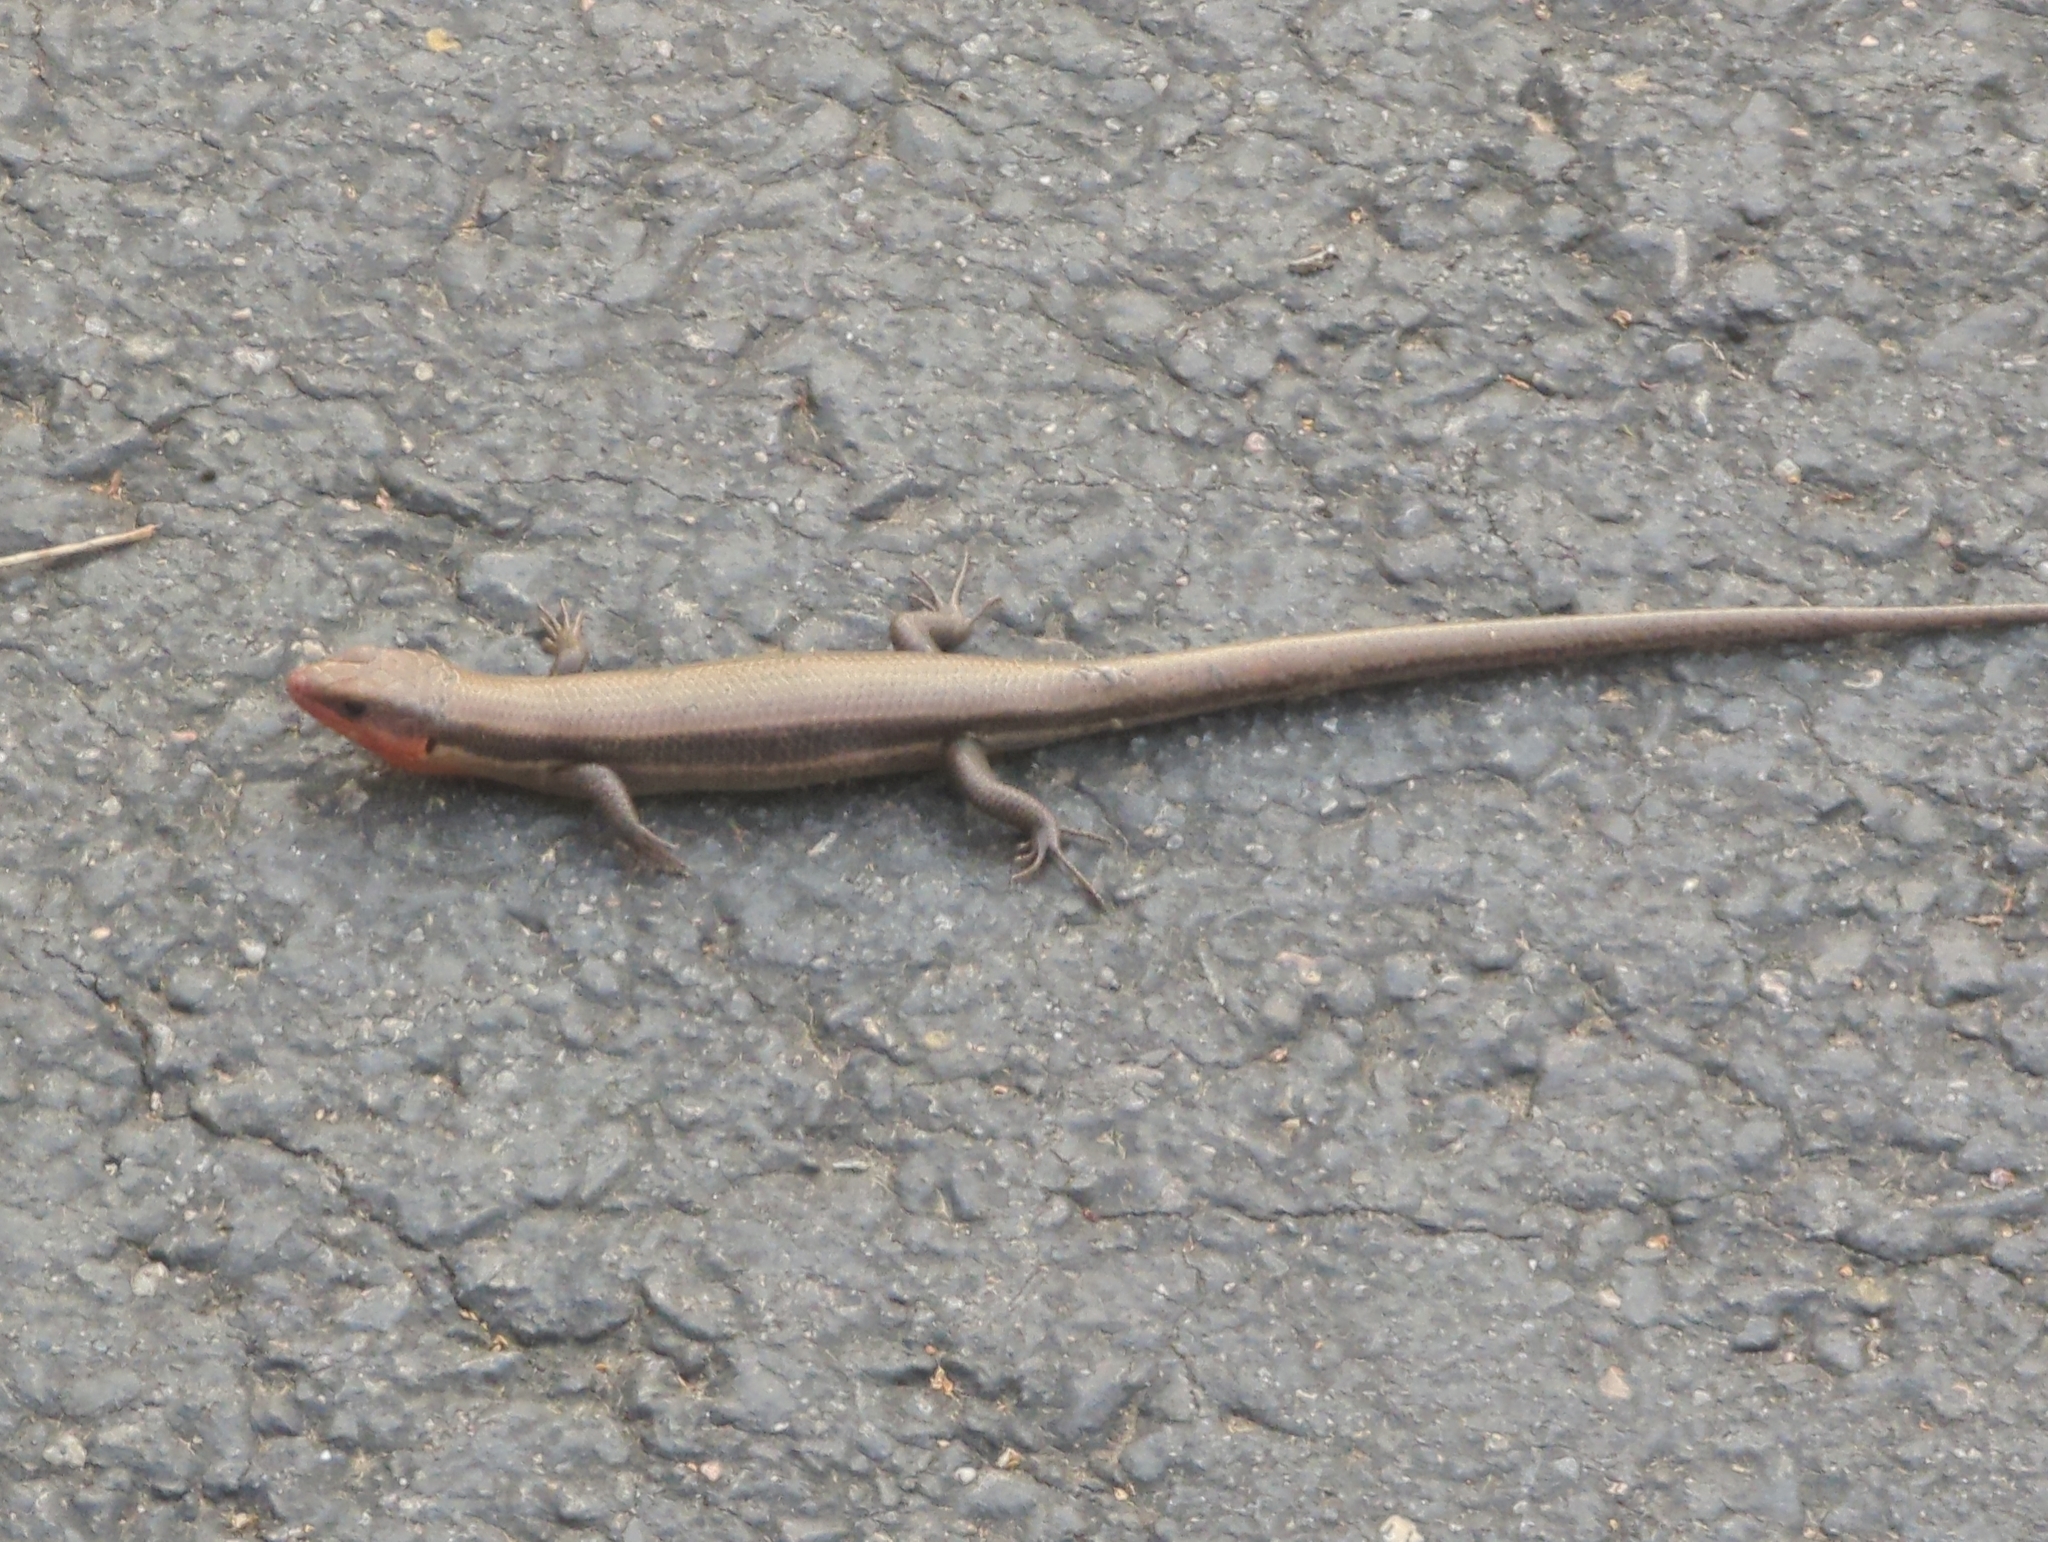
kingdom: Animalia
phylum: Chordata
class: Squamata
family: Scincidae
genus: Plestiodon
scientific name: Plestiodon fasciatus
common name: Five-lined skink
